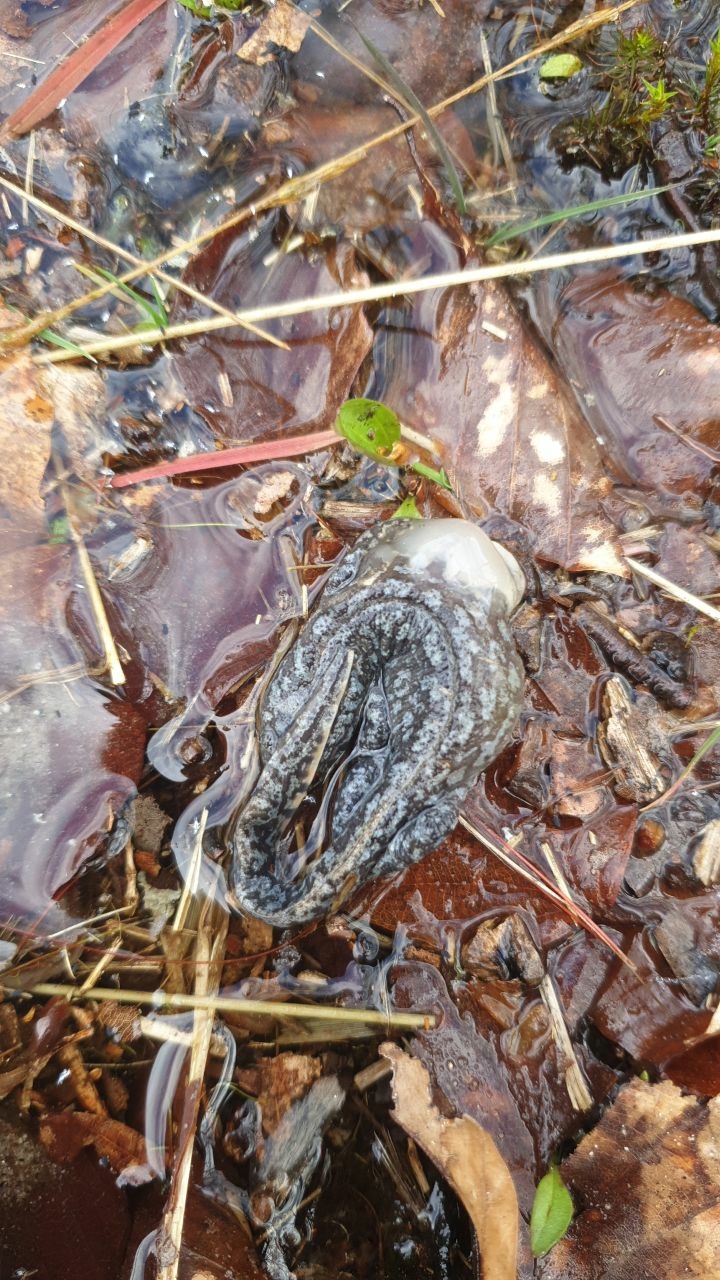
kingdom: Animalia
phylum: Chordata
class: Amphibia
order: Caudata
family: Salamandridae
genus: Ichthyosaura
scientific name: Ichthyosaura alpestris
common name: Alpine newt
